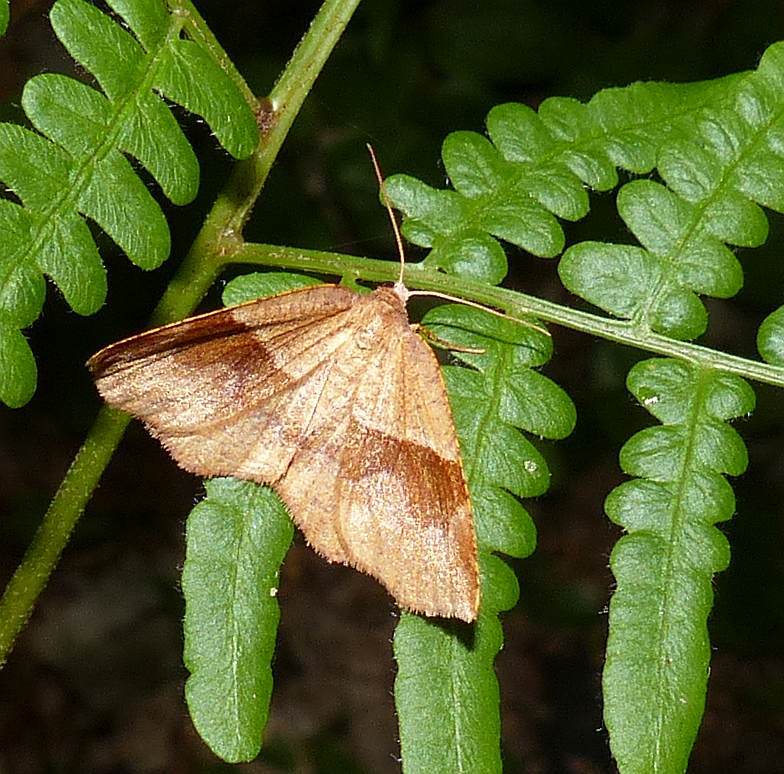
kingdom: Animalia
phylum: Arthropoda
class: Insecta
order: Lepidoptera
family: Geometridae
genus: Plagodis
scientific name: Plagodis pulveraria
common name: Barred umber
